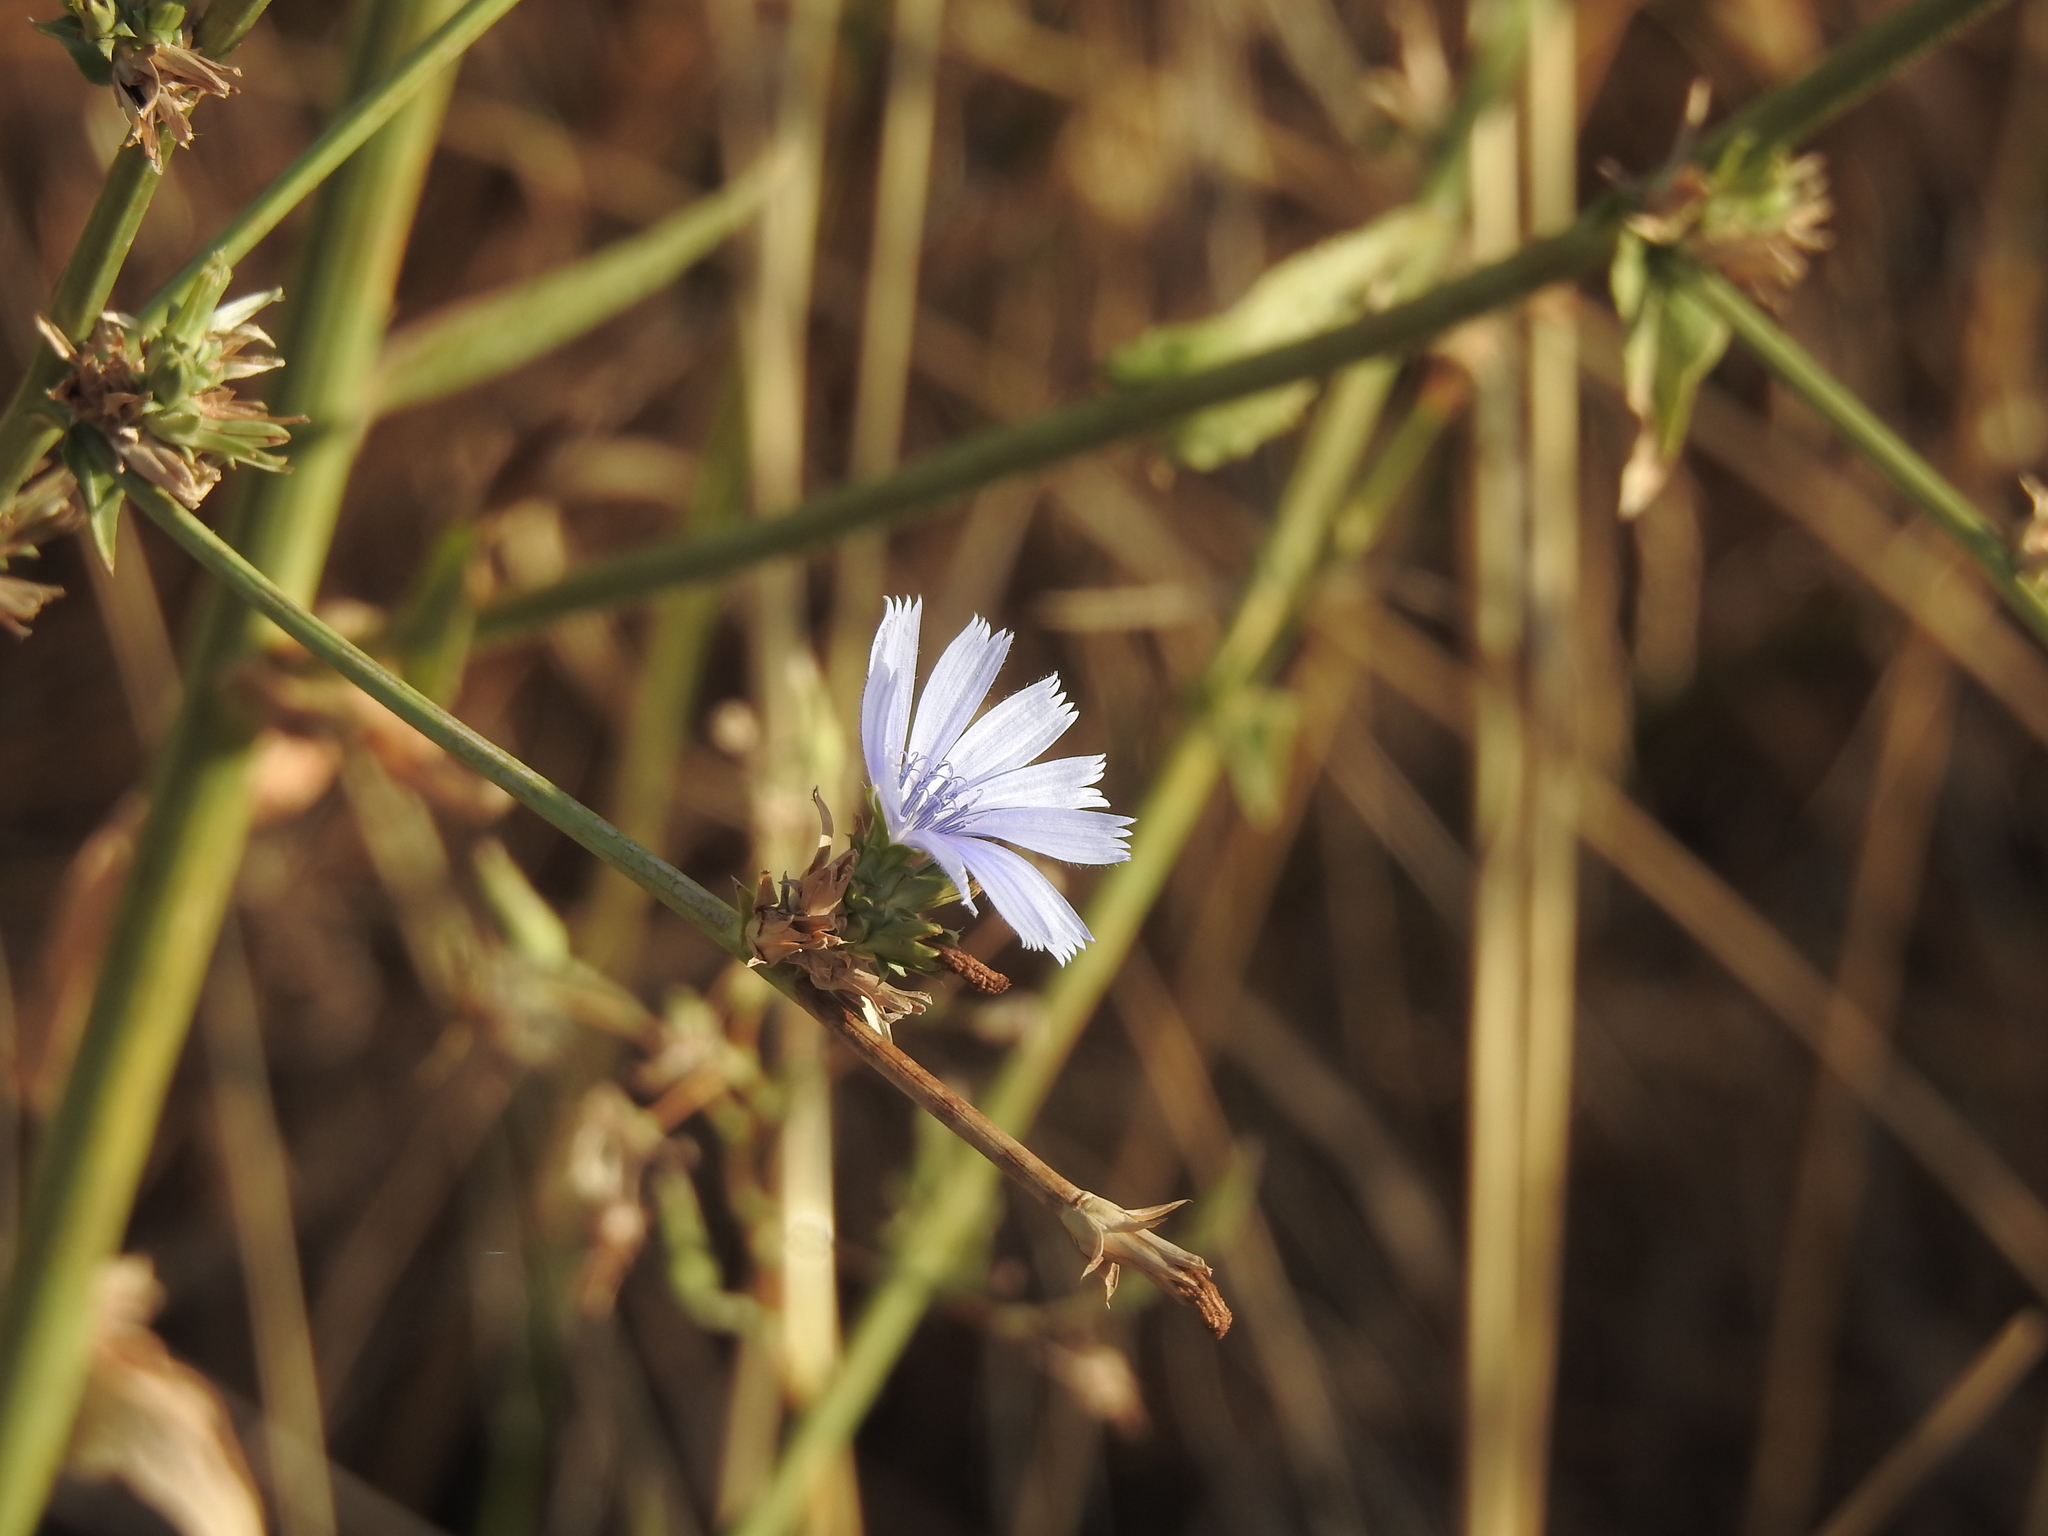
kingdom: Plantae
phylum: Tracheophyta
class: Magnoliopsida
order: Asterales
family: Asteraceae
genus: Cichorium
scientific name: Cichorium intybus
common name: Chicory
